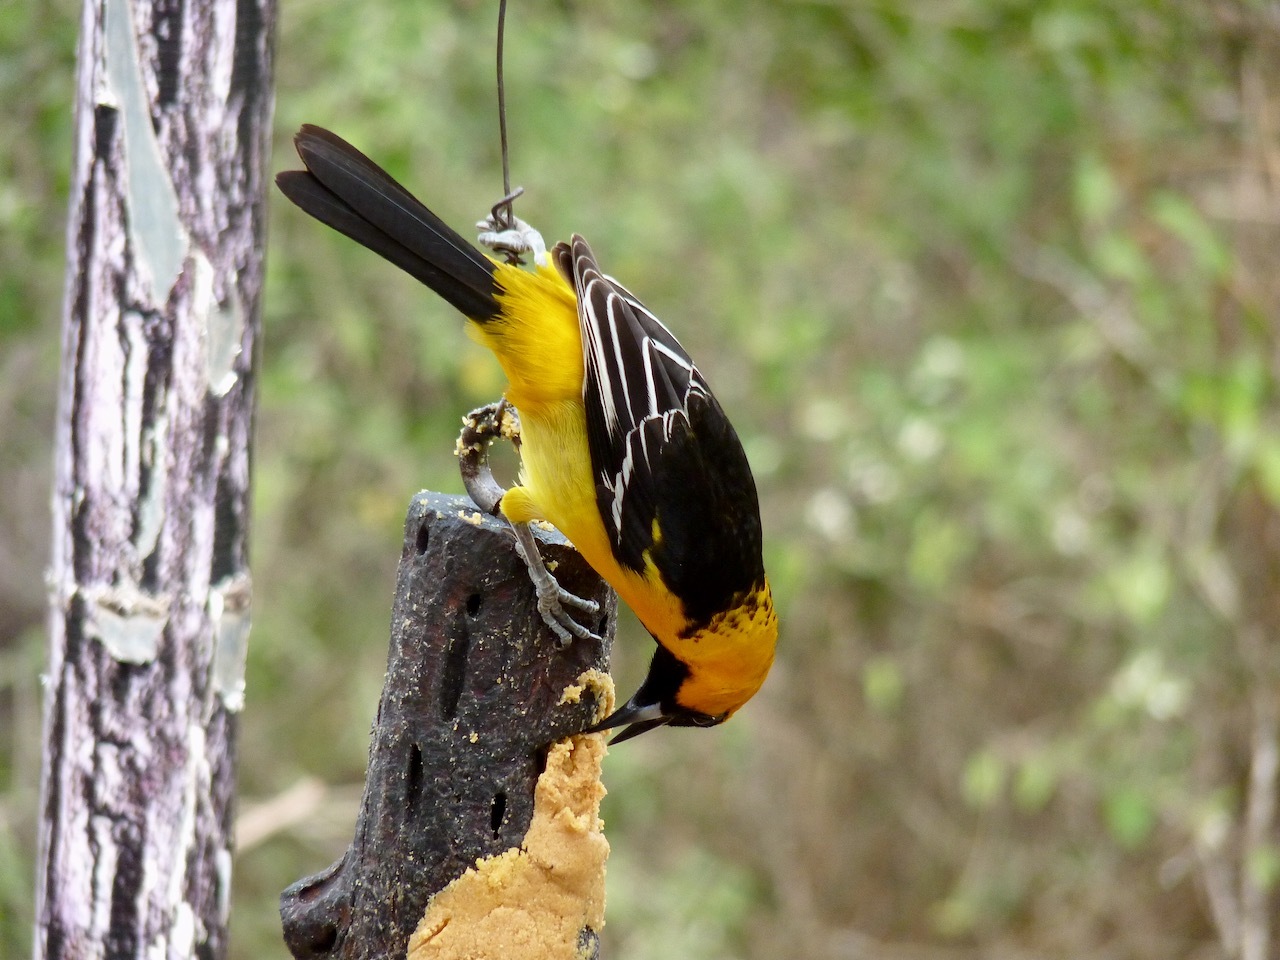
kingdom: Animalia
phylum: Chordata
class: Aves
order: Passeriformes
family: Icteridae
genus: Icterus
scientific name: Icterus gularis
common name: Altamira oriole
